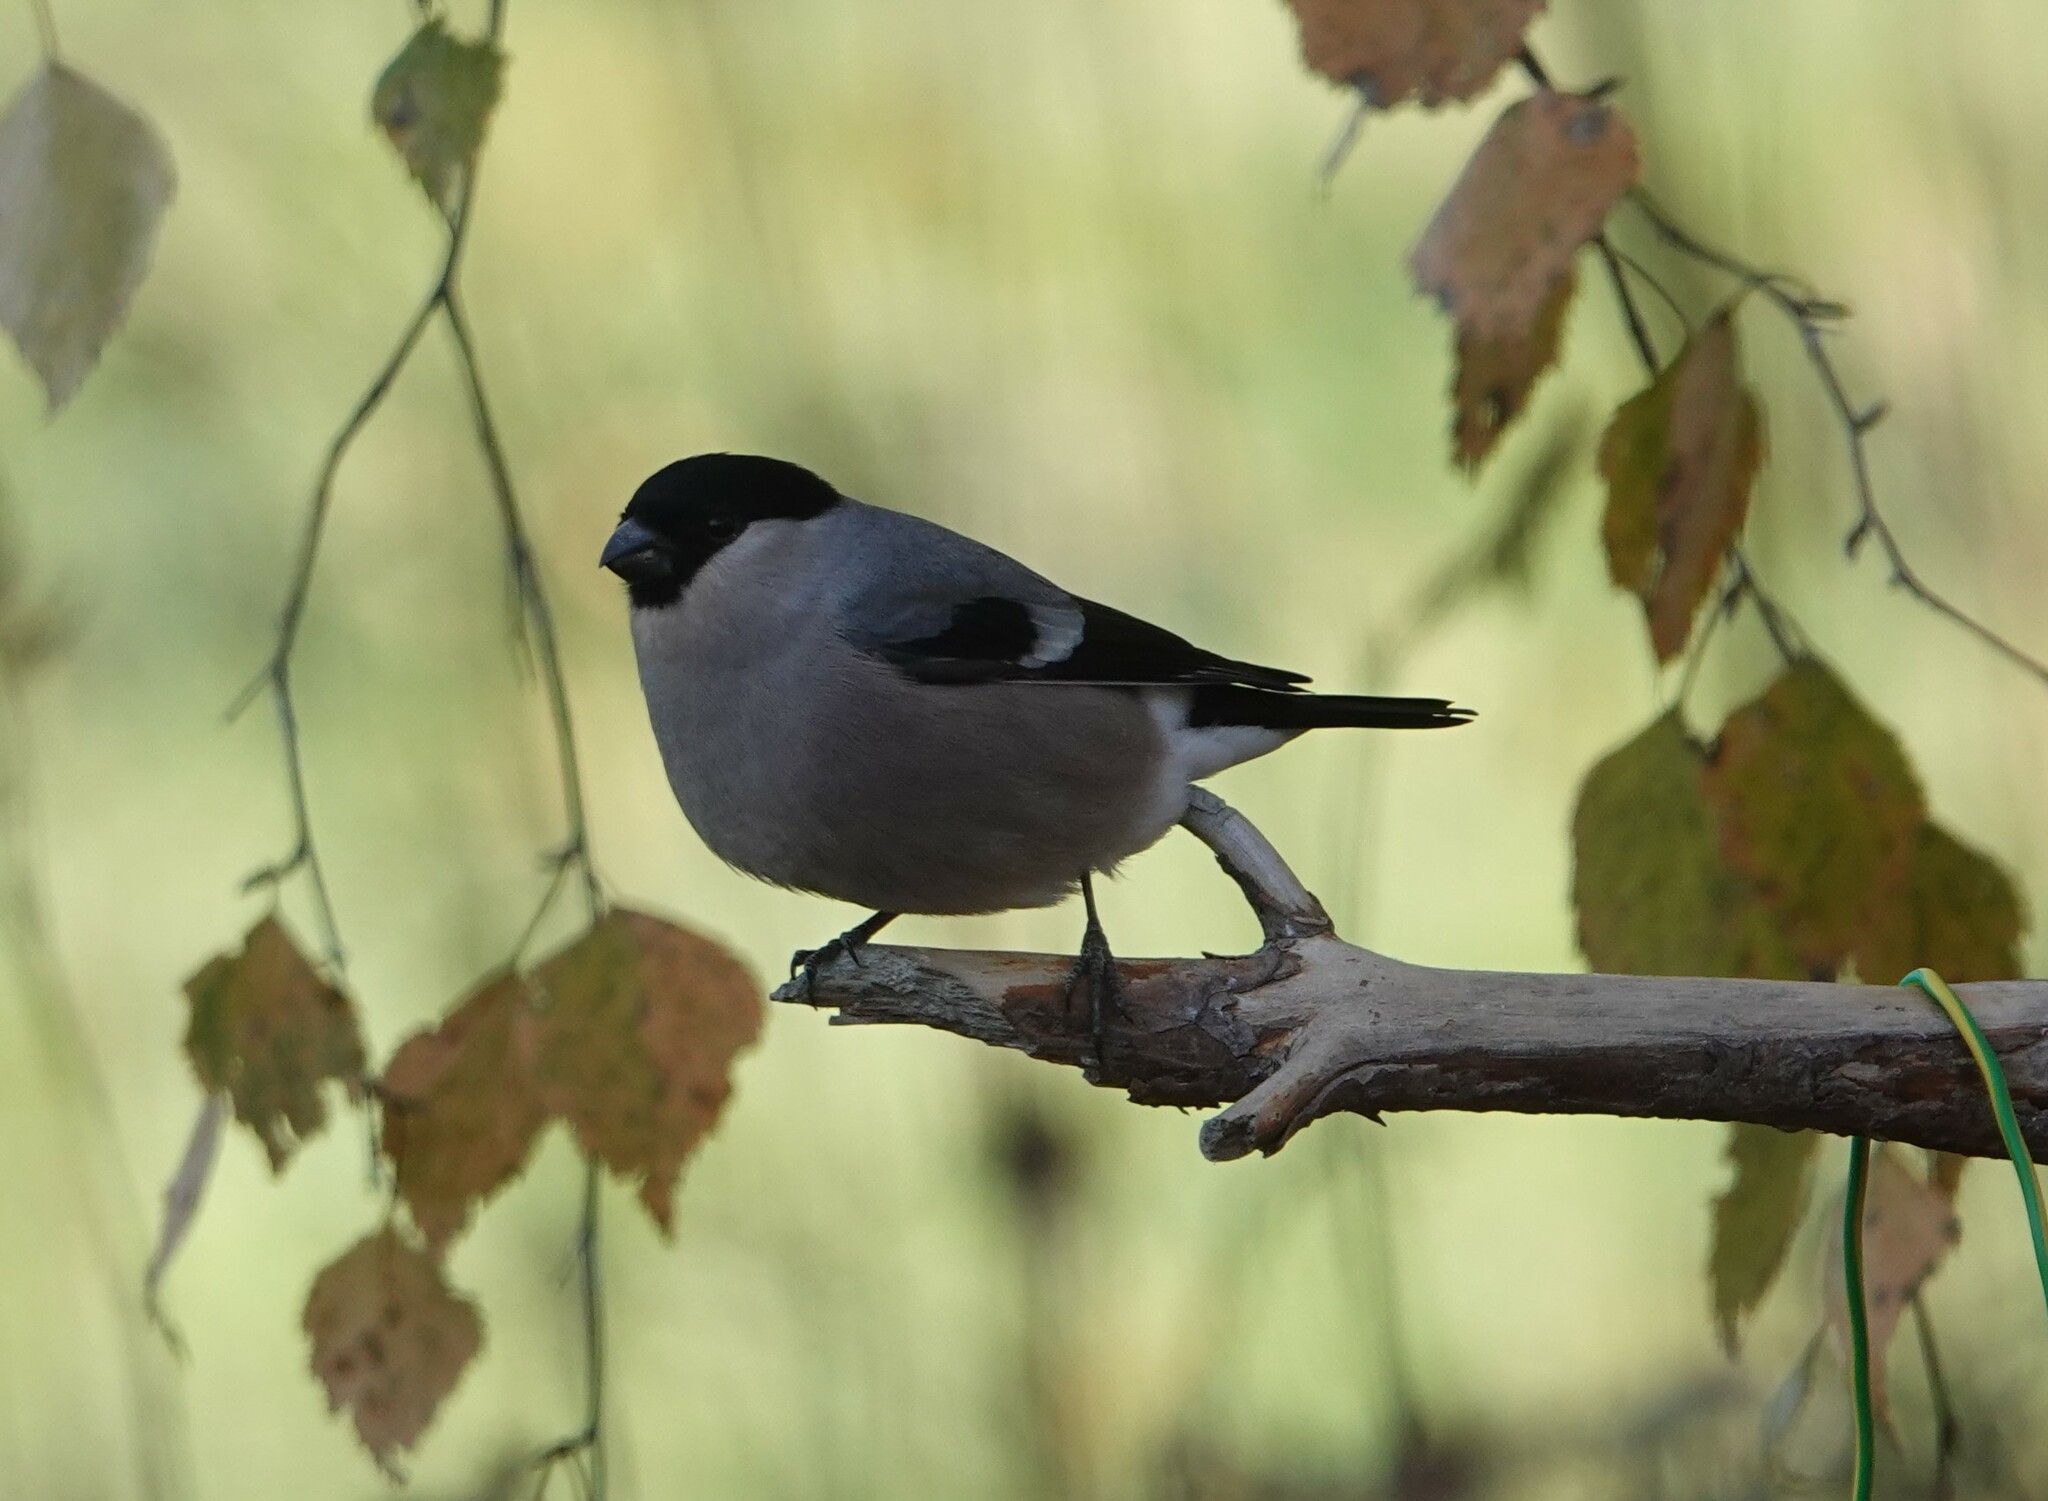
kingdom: Animalia
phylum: Chordata
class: Aves
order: Passeriformes
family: Fringillidae
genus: Pyrrhula
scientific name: Pyrrhula pyrrhula
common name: Eurasian bullfinch
